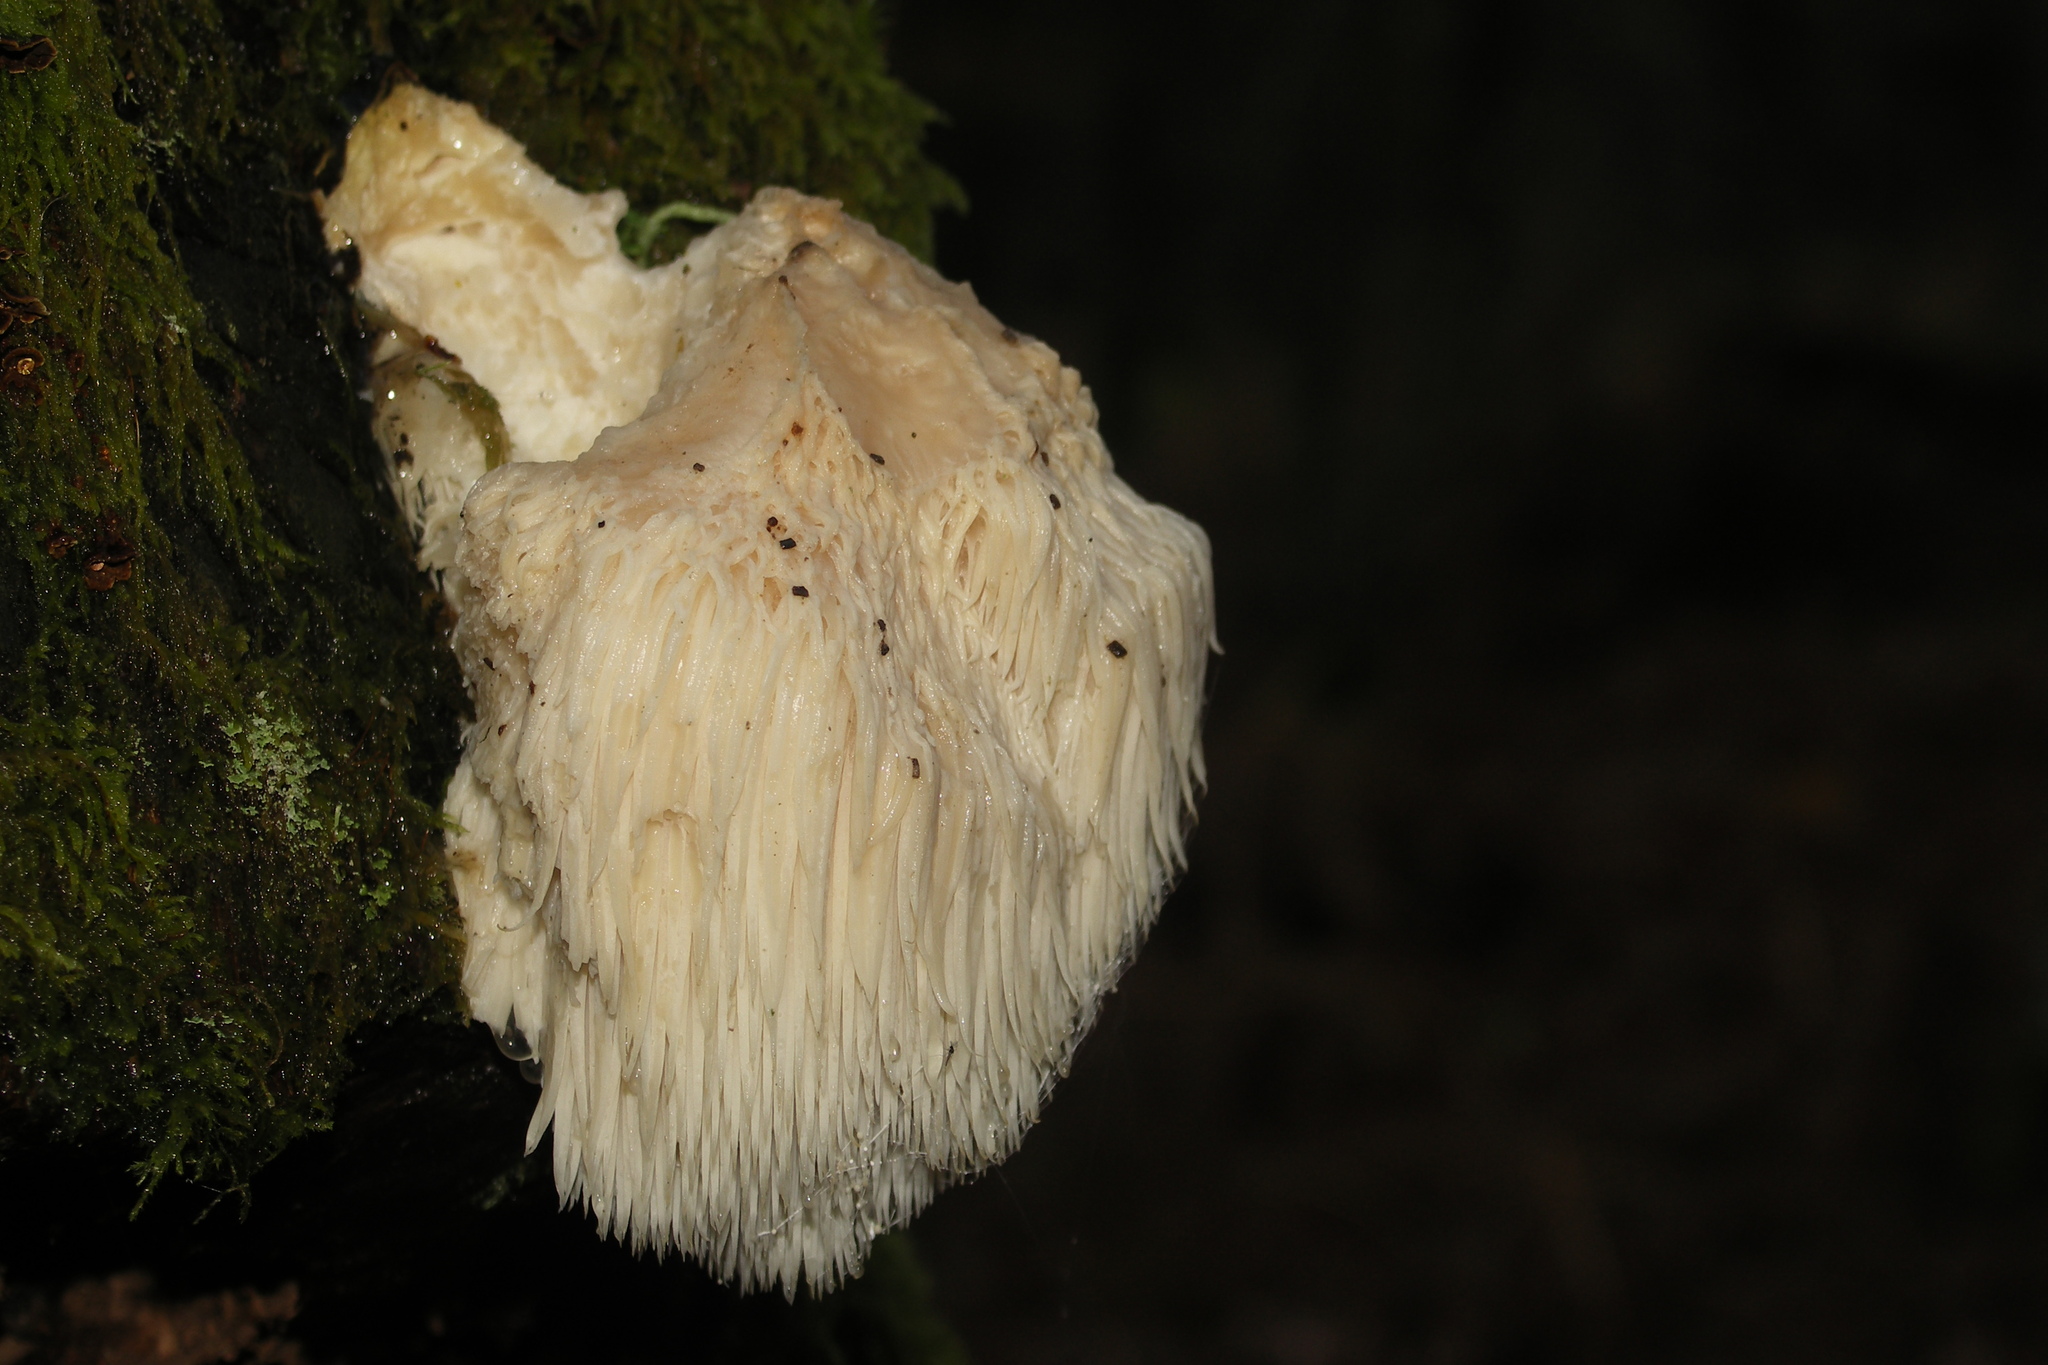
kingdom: Fungi
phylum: Basidiomycota
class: Agaricomycetes
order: Russulales
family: Hericiaceae
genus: Hericium
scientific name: Hericium erinaceus
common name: Bearded tooth
